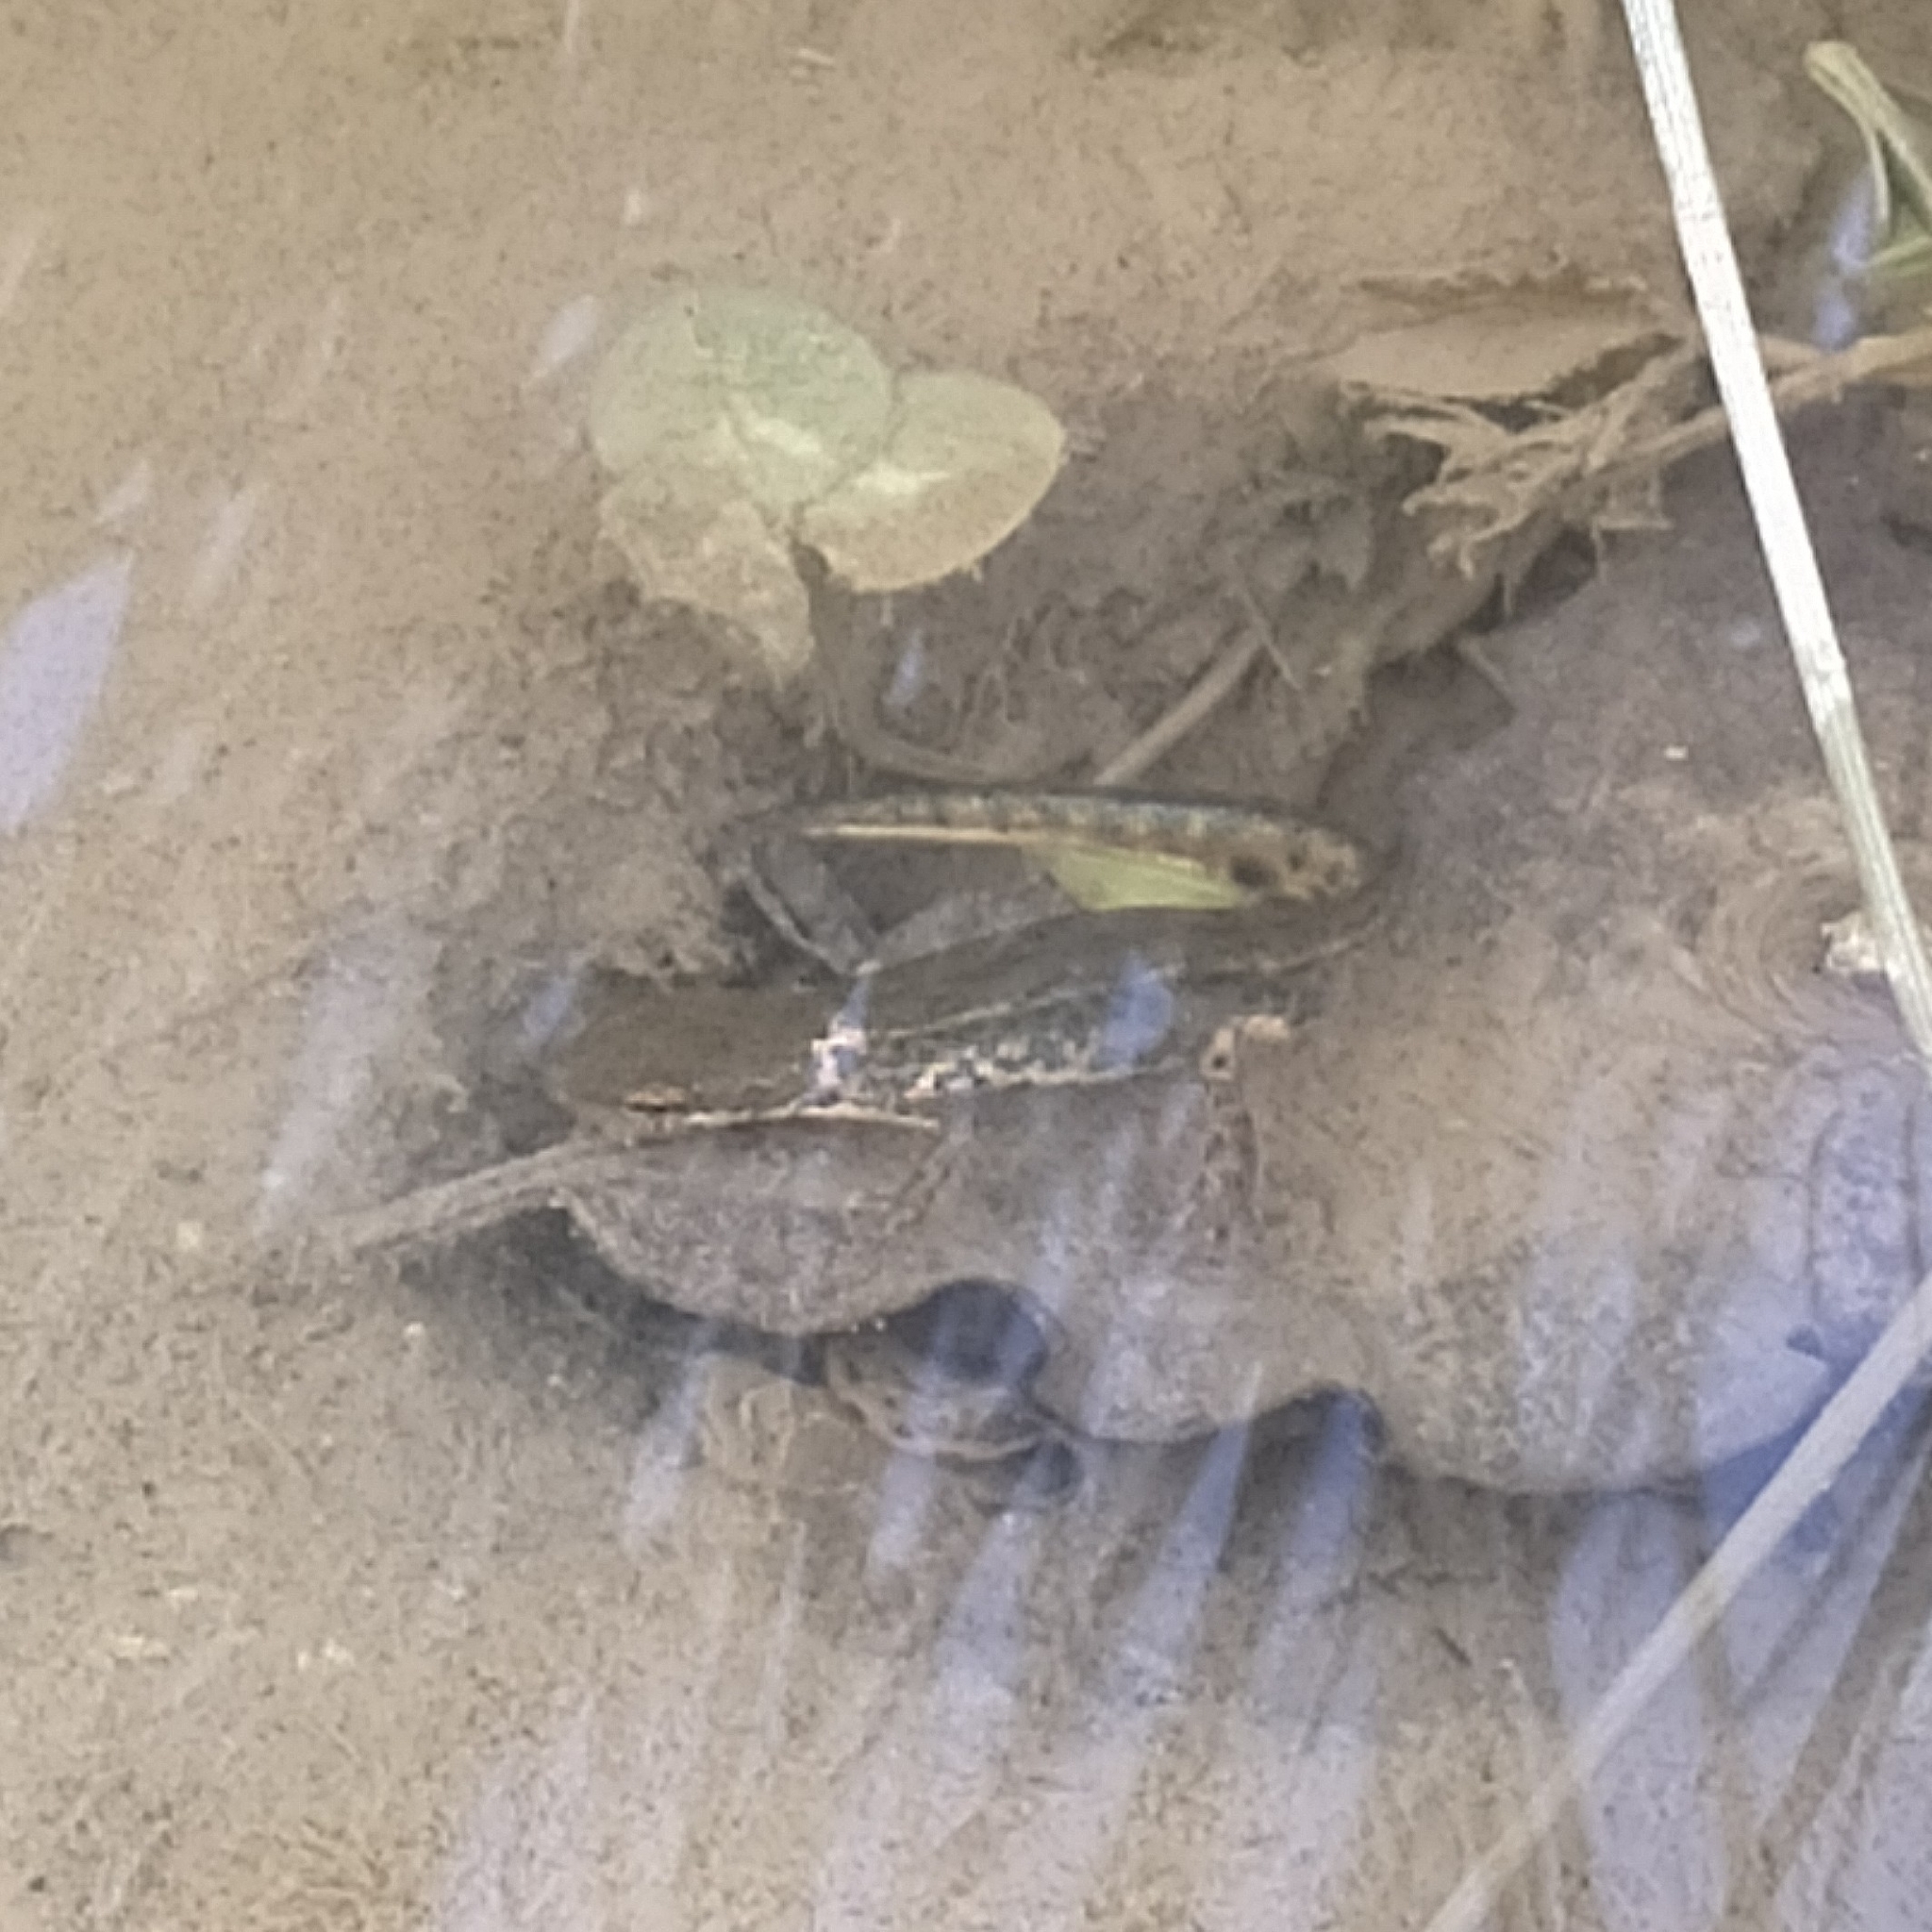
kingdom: Animalia
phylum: Chordata
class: Amphibia
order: Caudata
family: Salamandridae
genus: Lissotriton
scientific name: Lissotriton italicus
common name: Italian newt
